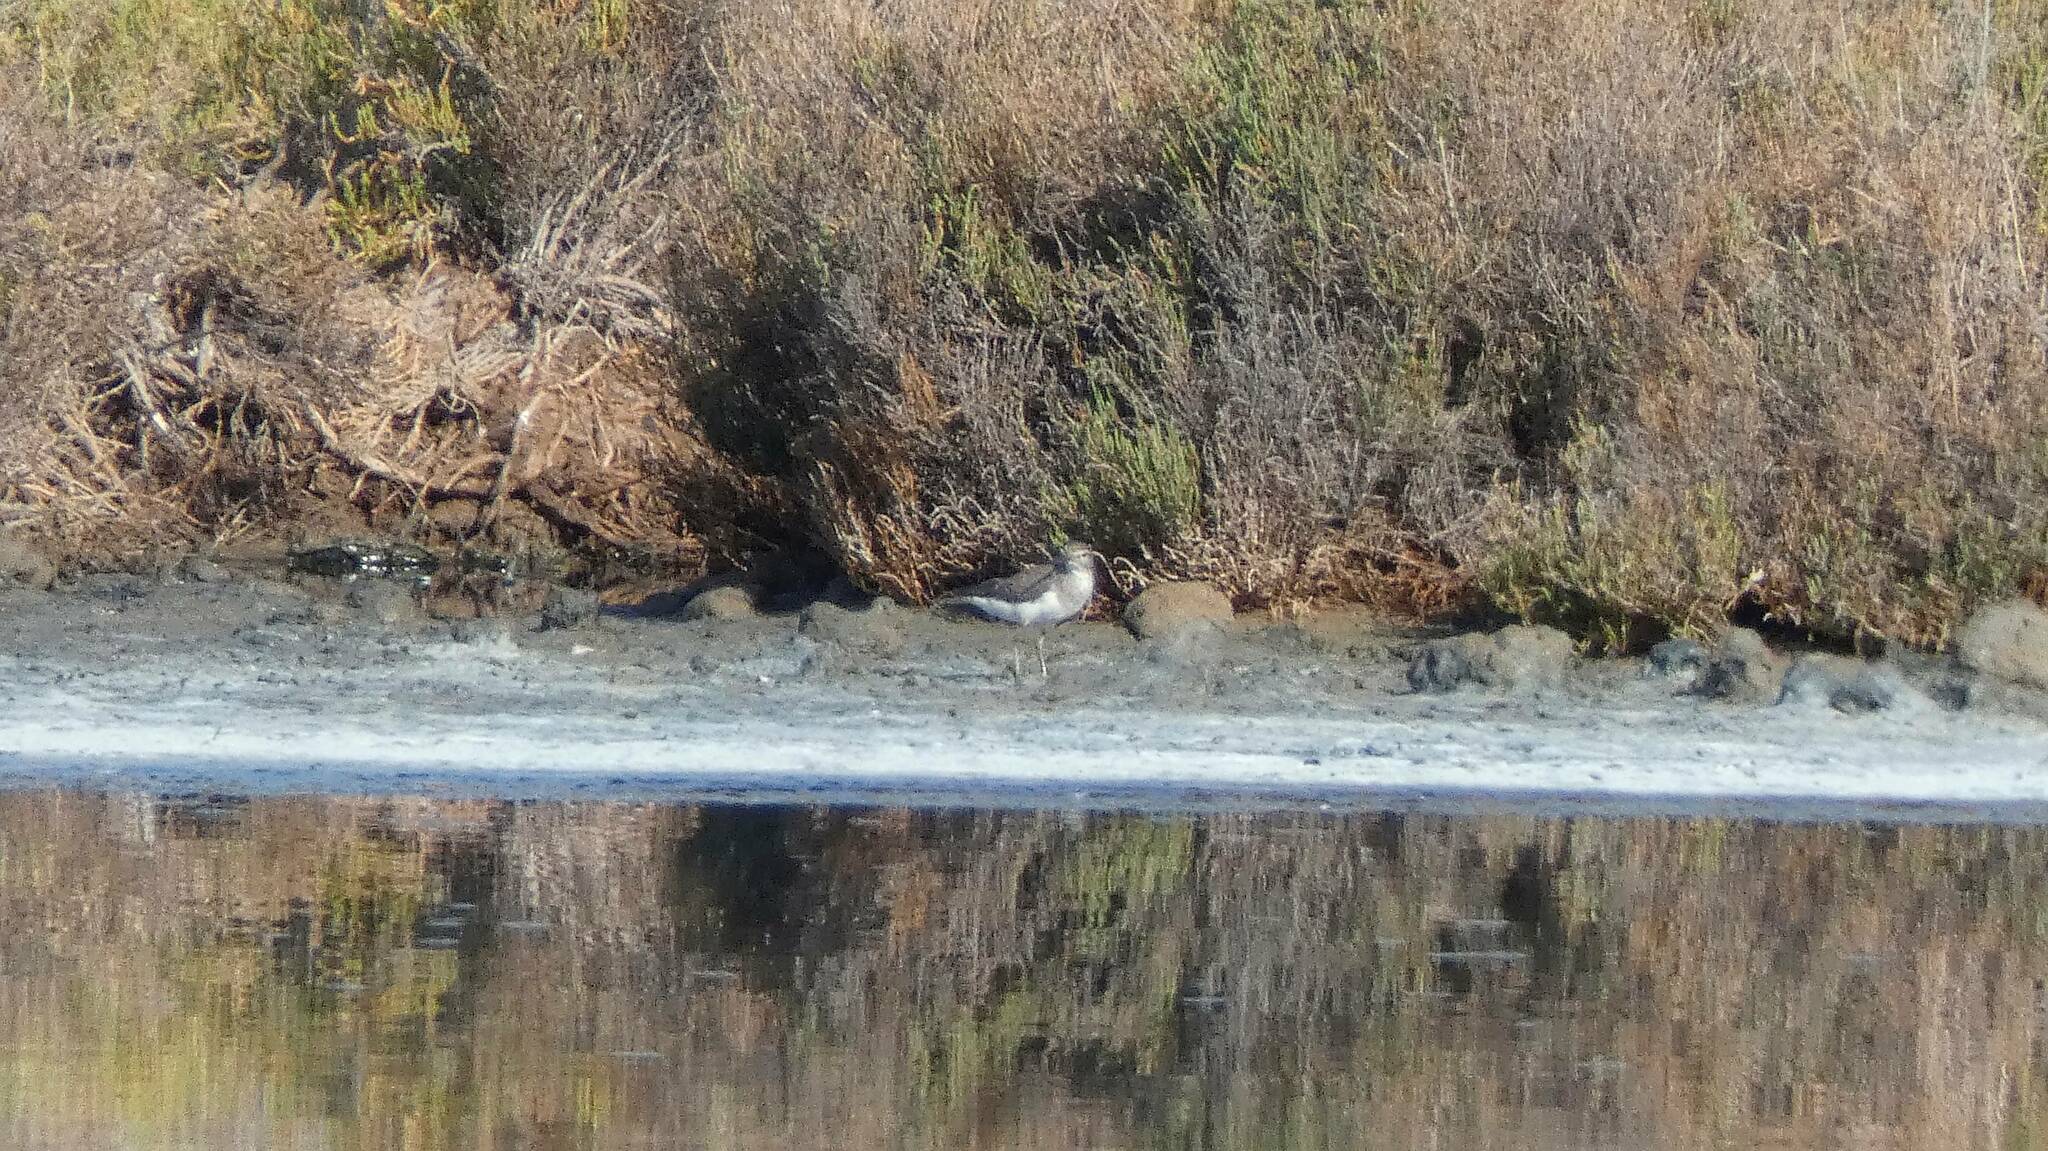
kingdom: Animalia
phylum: Chordata
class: Aves
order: Charadriiformes
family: Scolopacidae
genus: Tringa
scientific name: Tringa ochropus
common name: Green sandpiper
